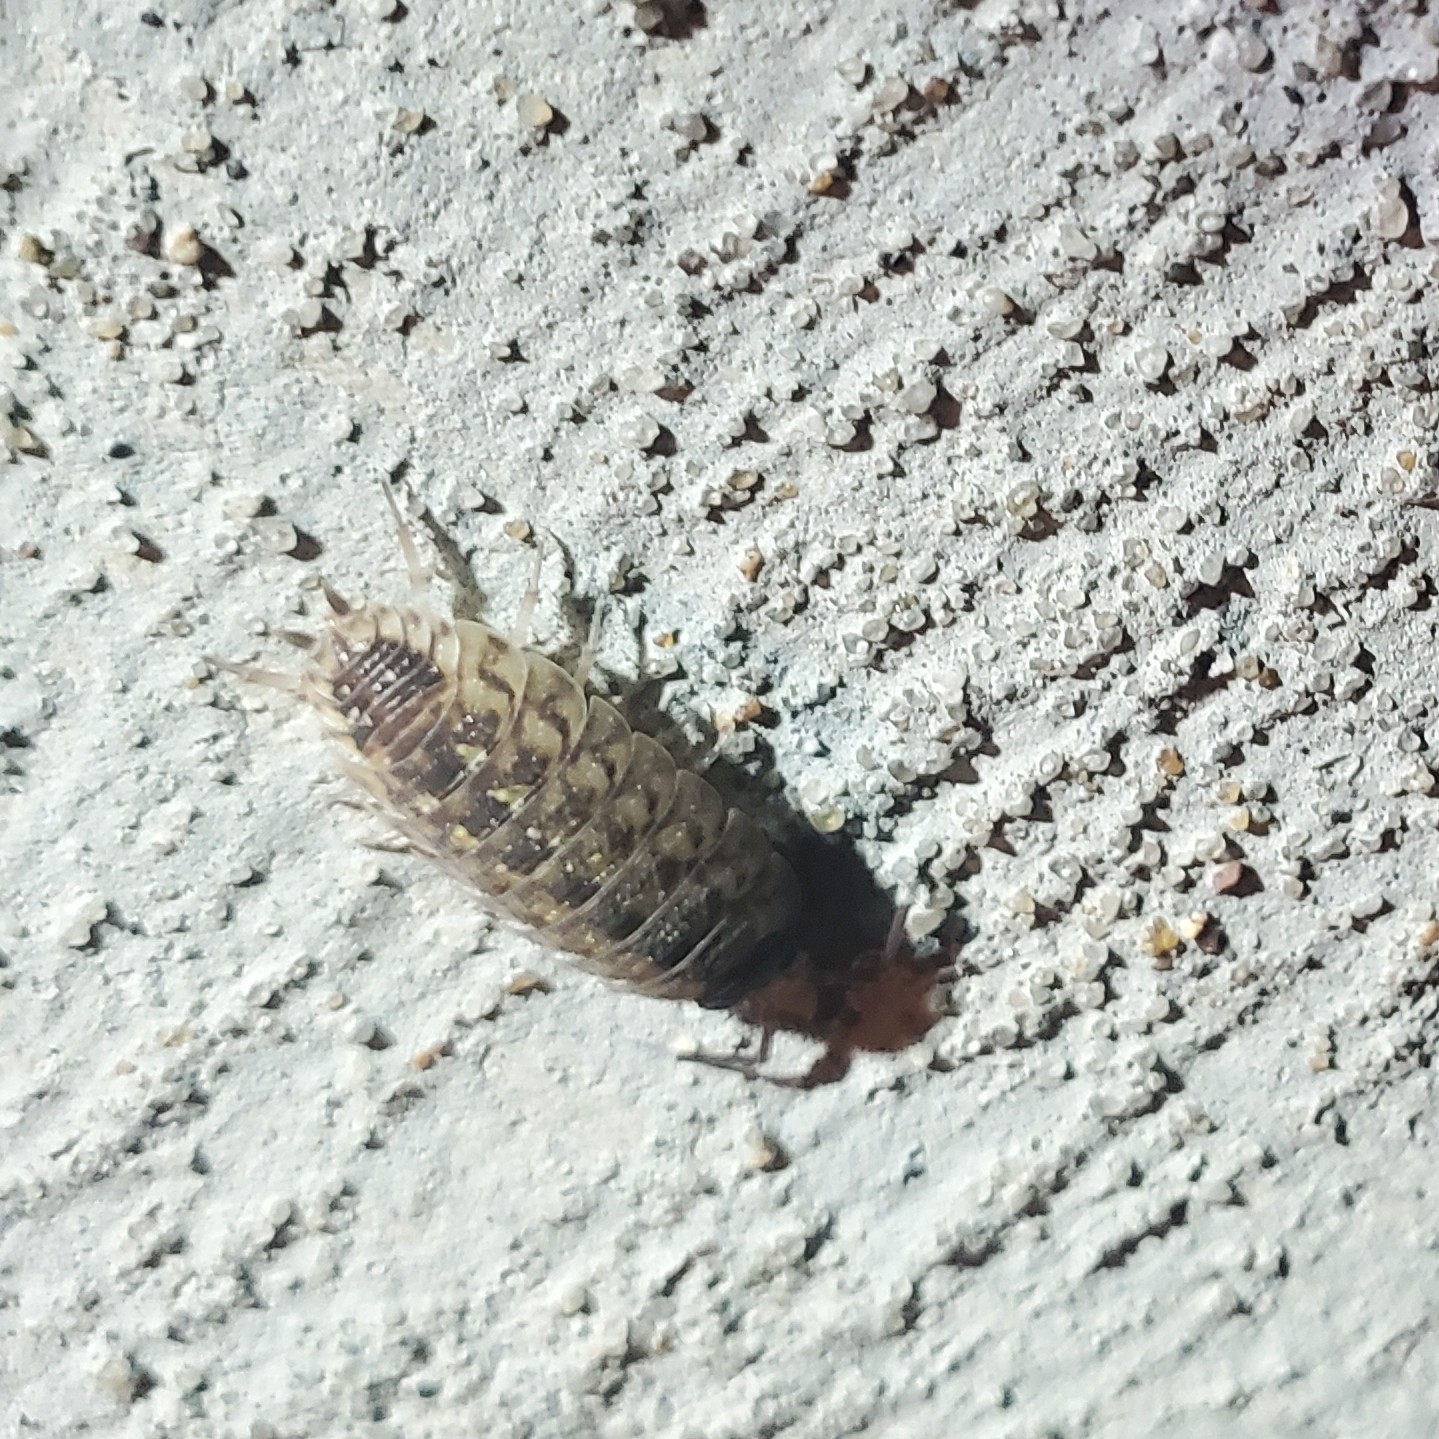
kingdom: Animalia
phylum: Arthropoda
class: Malacostraca
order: Isopoda
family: Porcellionidae
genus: Porcellio
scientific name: Porcellio spinicornis
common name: Painted woodlouse
